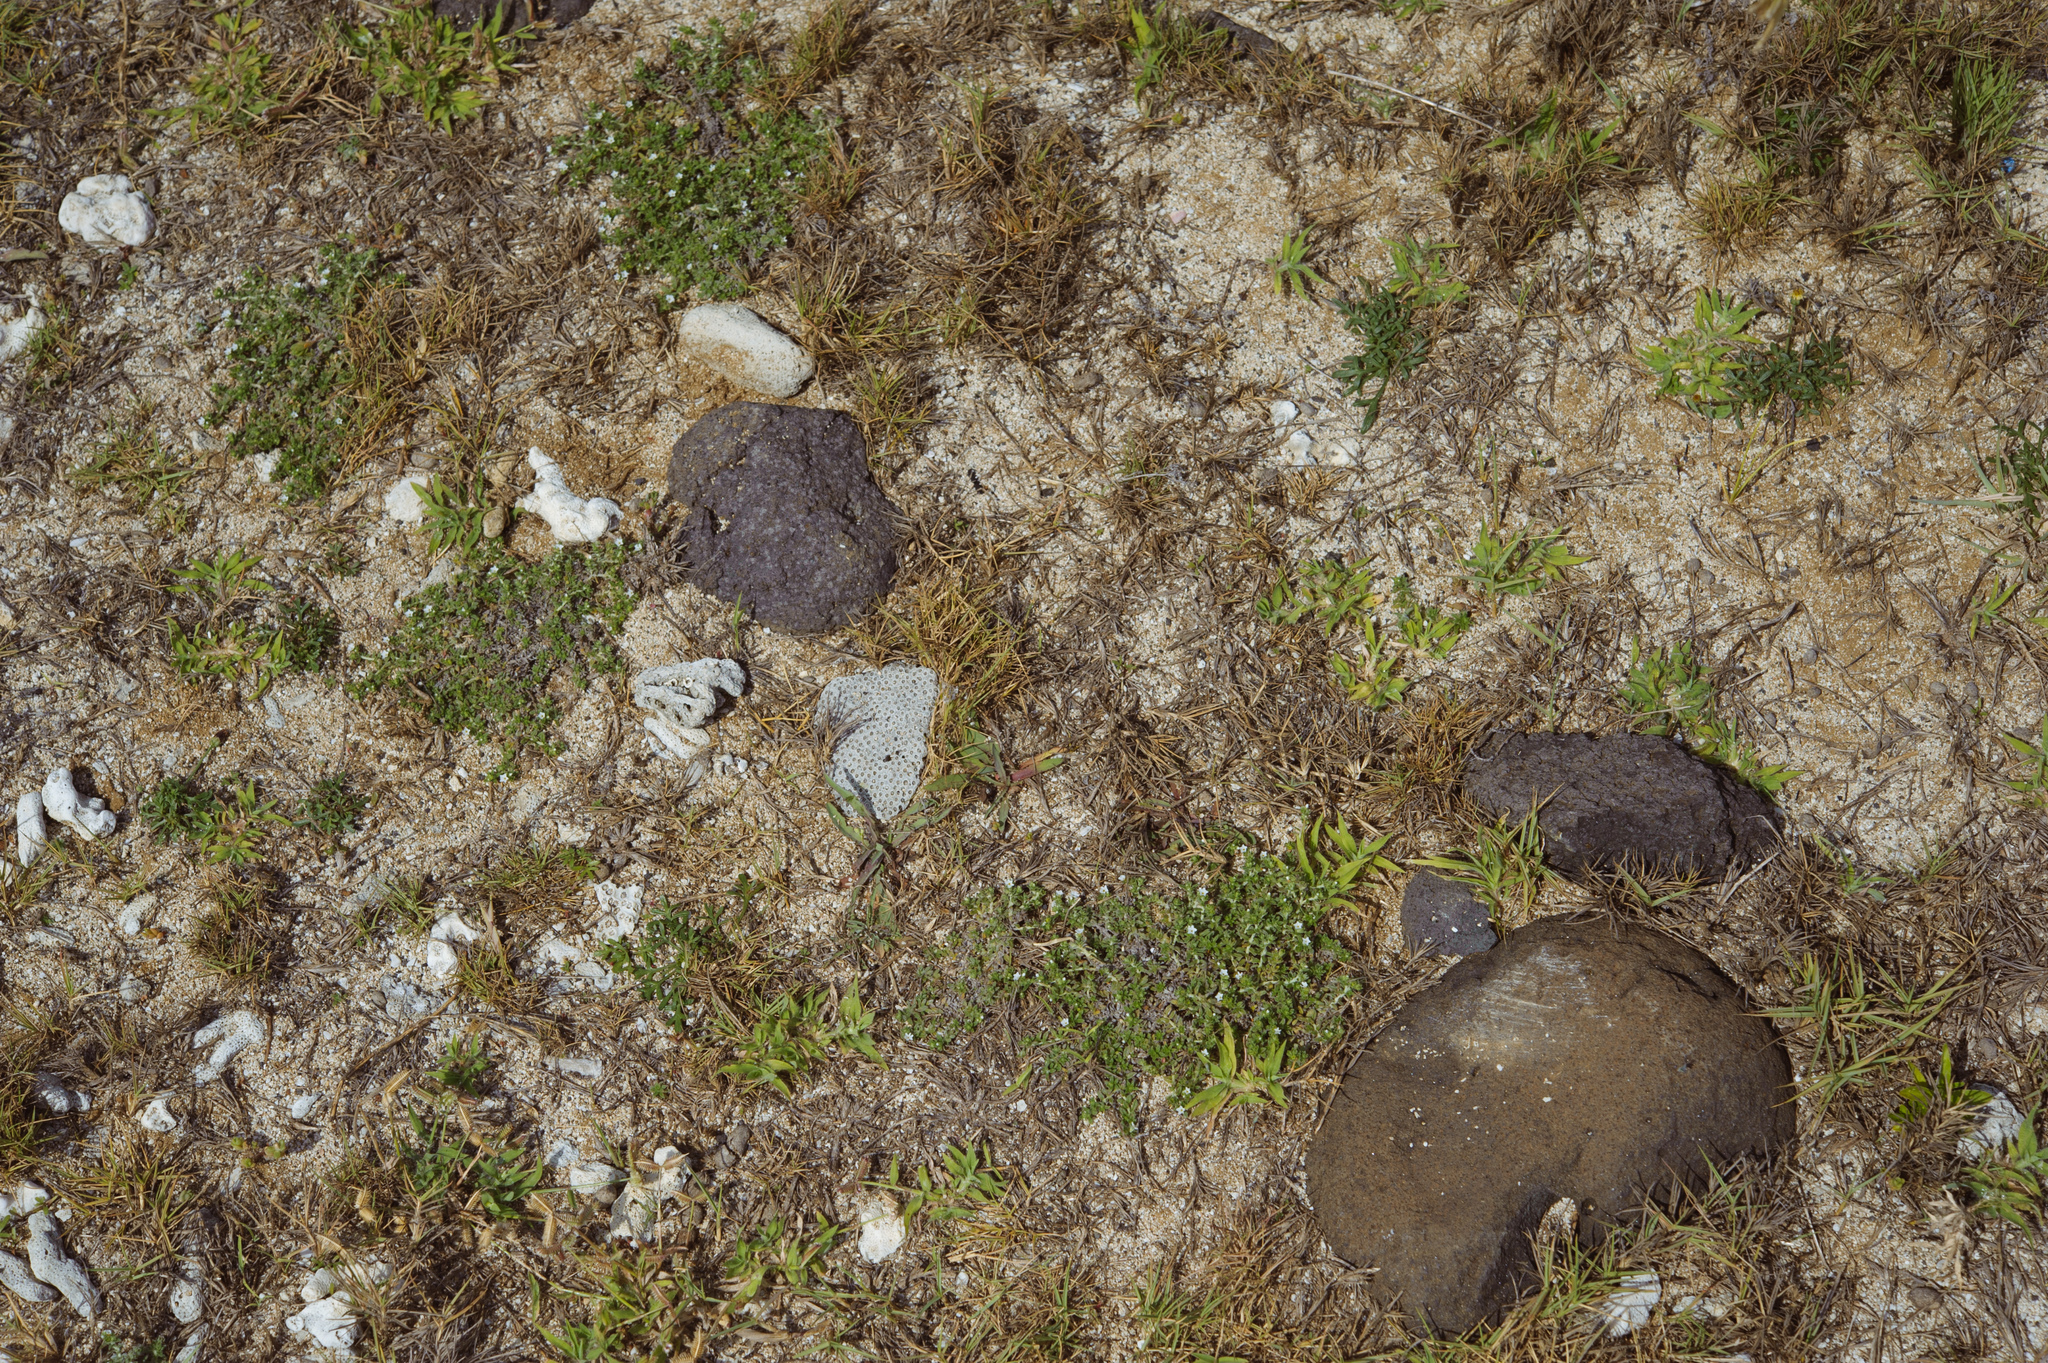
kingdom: Plantae
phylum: Tracheophyta
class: Magnoliopsida
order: Boraginales
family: Heliotropiaceae
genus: Heliotropium
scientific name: Heliotropium formosanum
